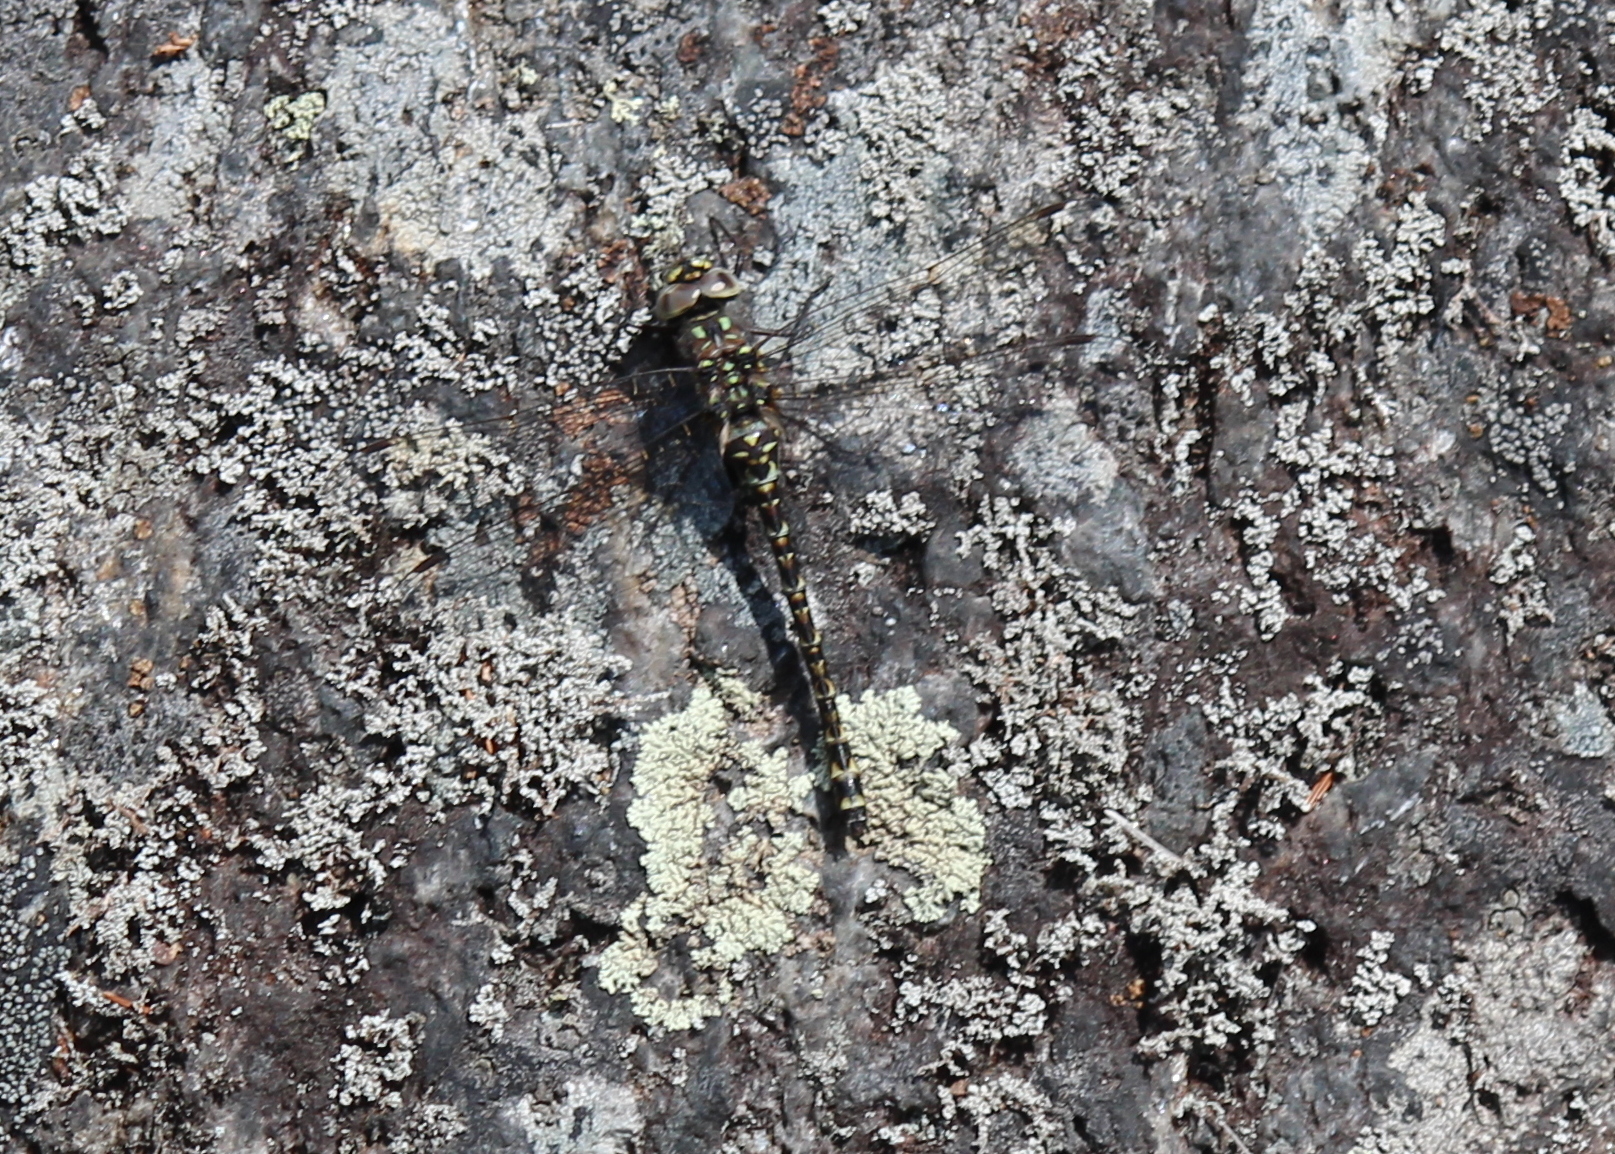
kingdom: Animalia
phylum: Arthropoda
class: Insecta
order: Odonata
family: Aeshnidae
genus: Gomphaeschna
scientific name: Gomphaeschna furcillata
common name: Harlequin darner
